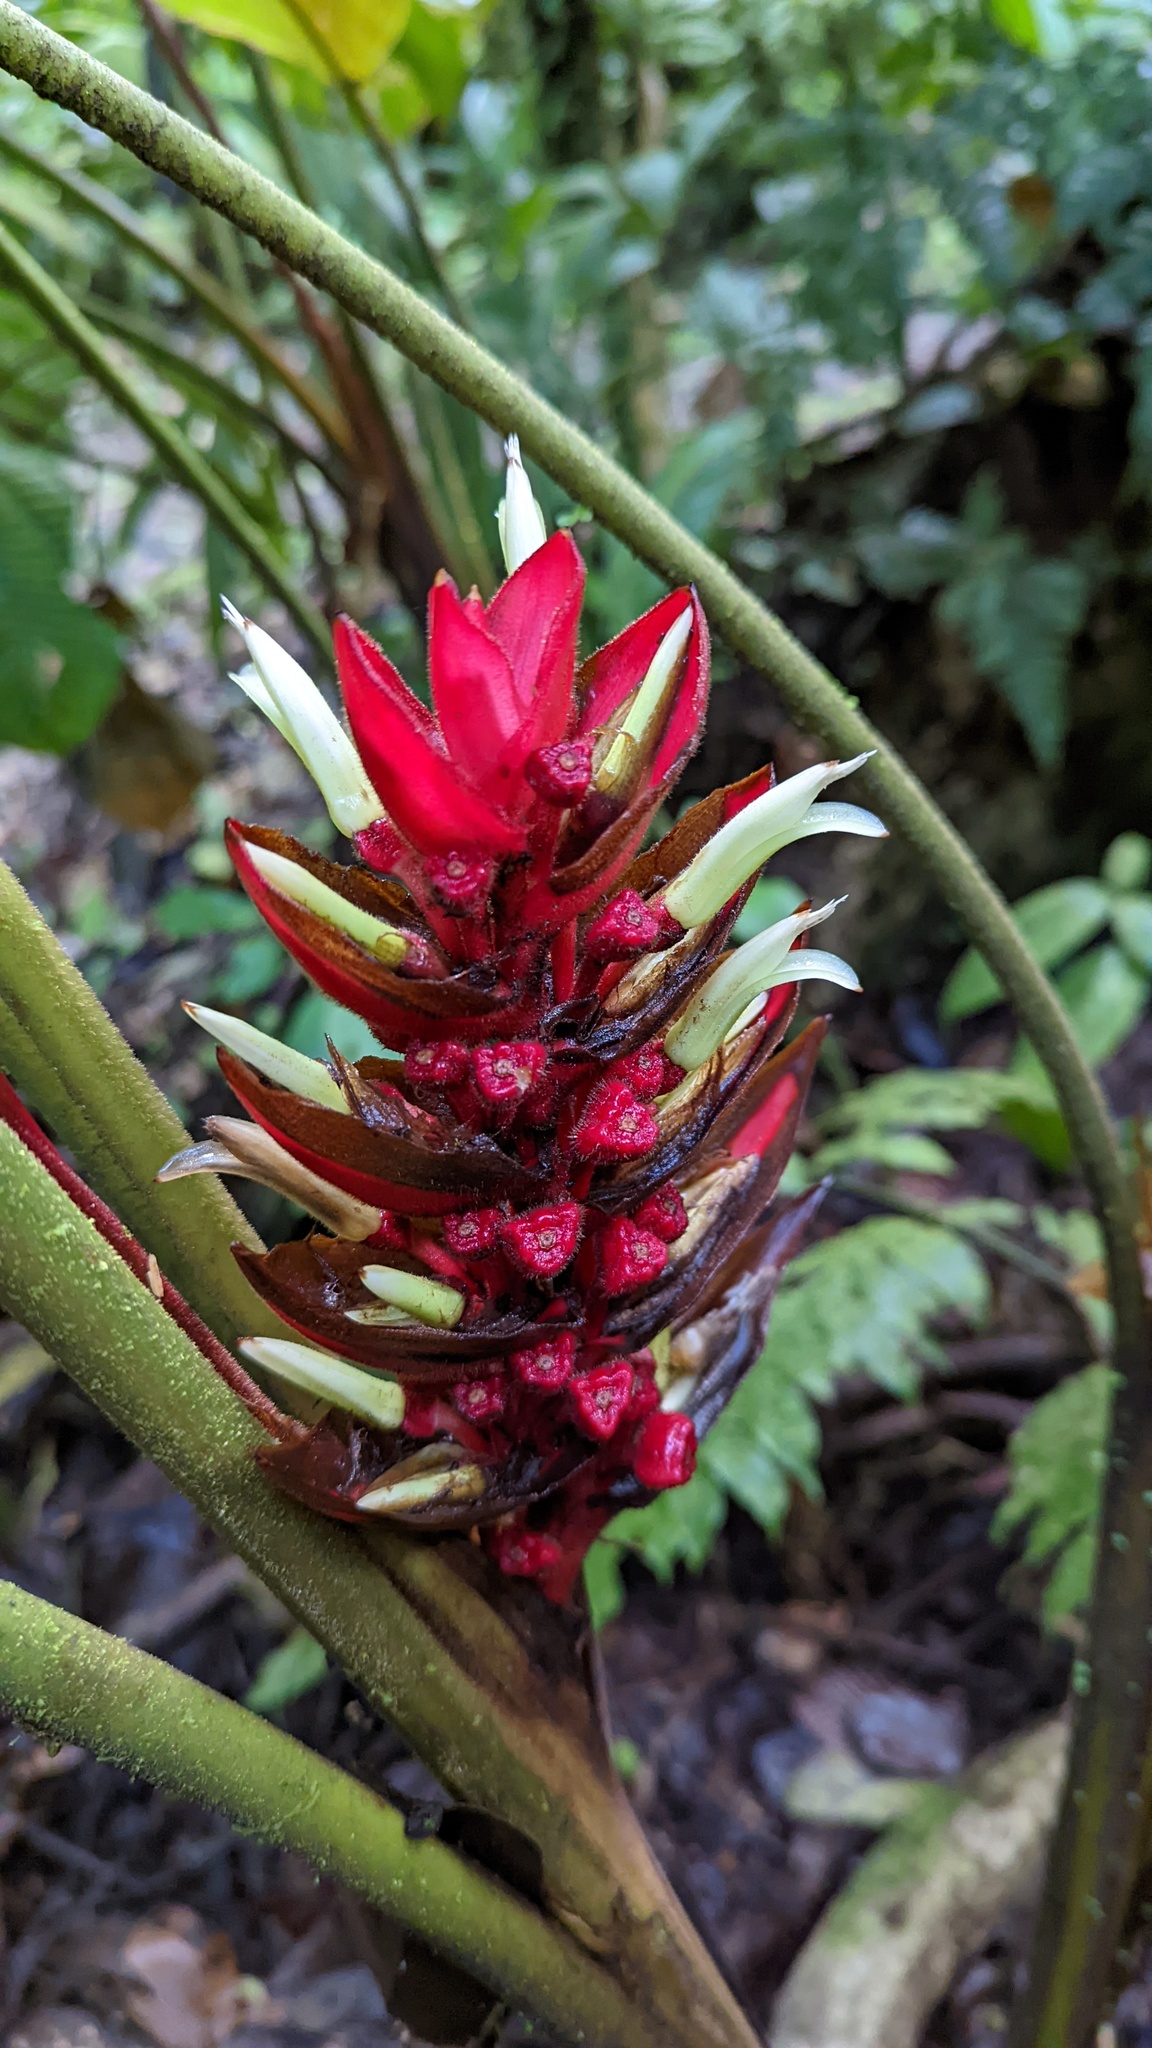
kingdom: Plantae
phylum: Tracheophyta
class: Liliopsida
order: Zingiberales
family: Heliconiaceae
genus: Heliconia
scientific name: Heliconia lophocarpa
